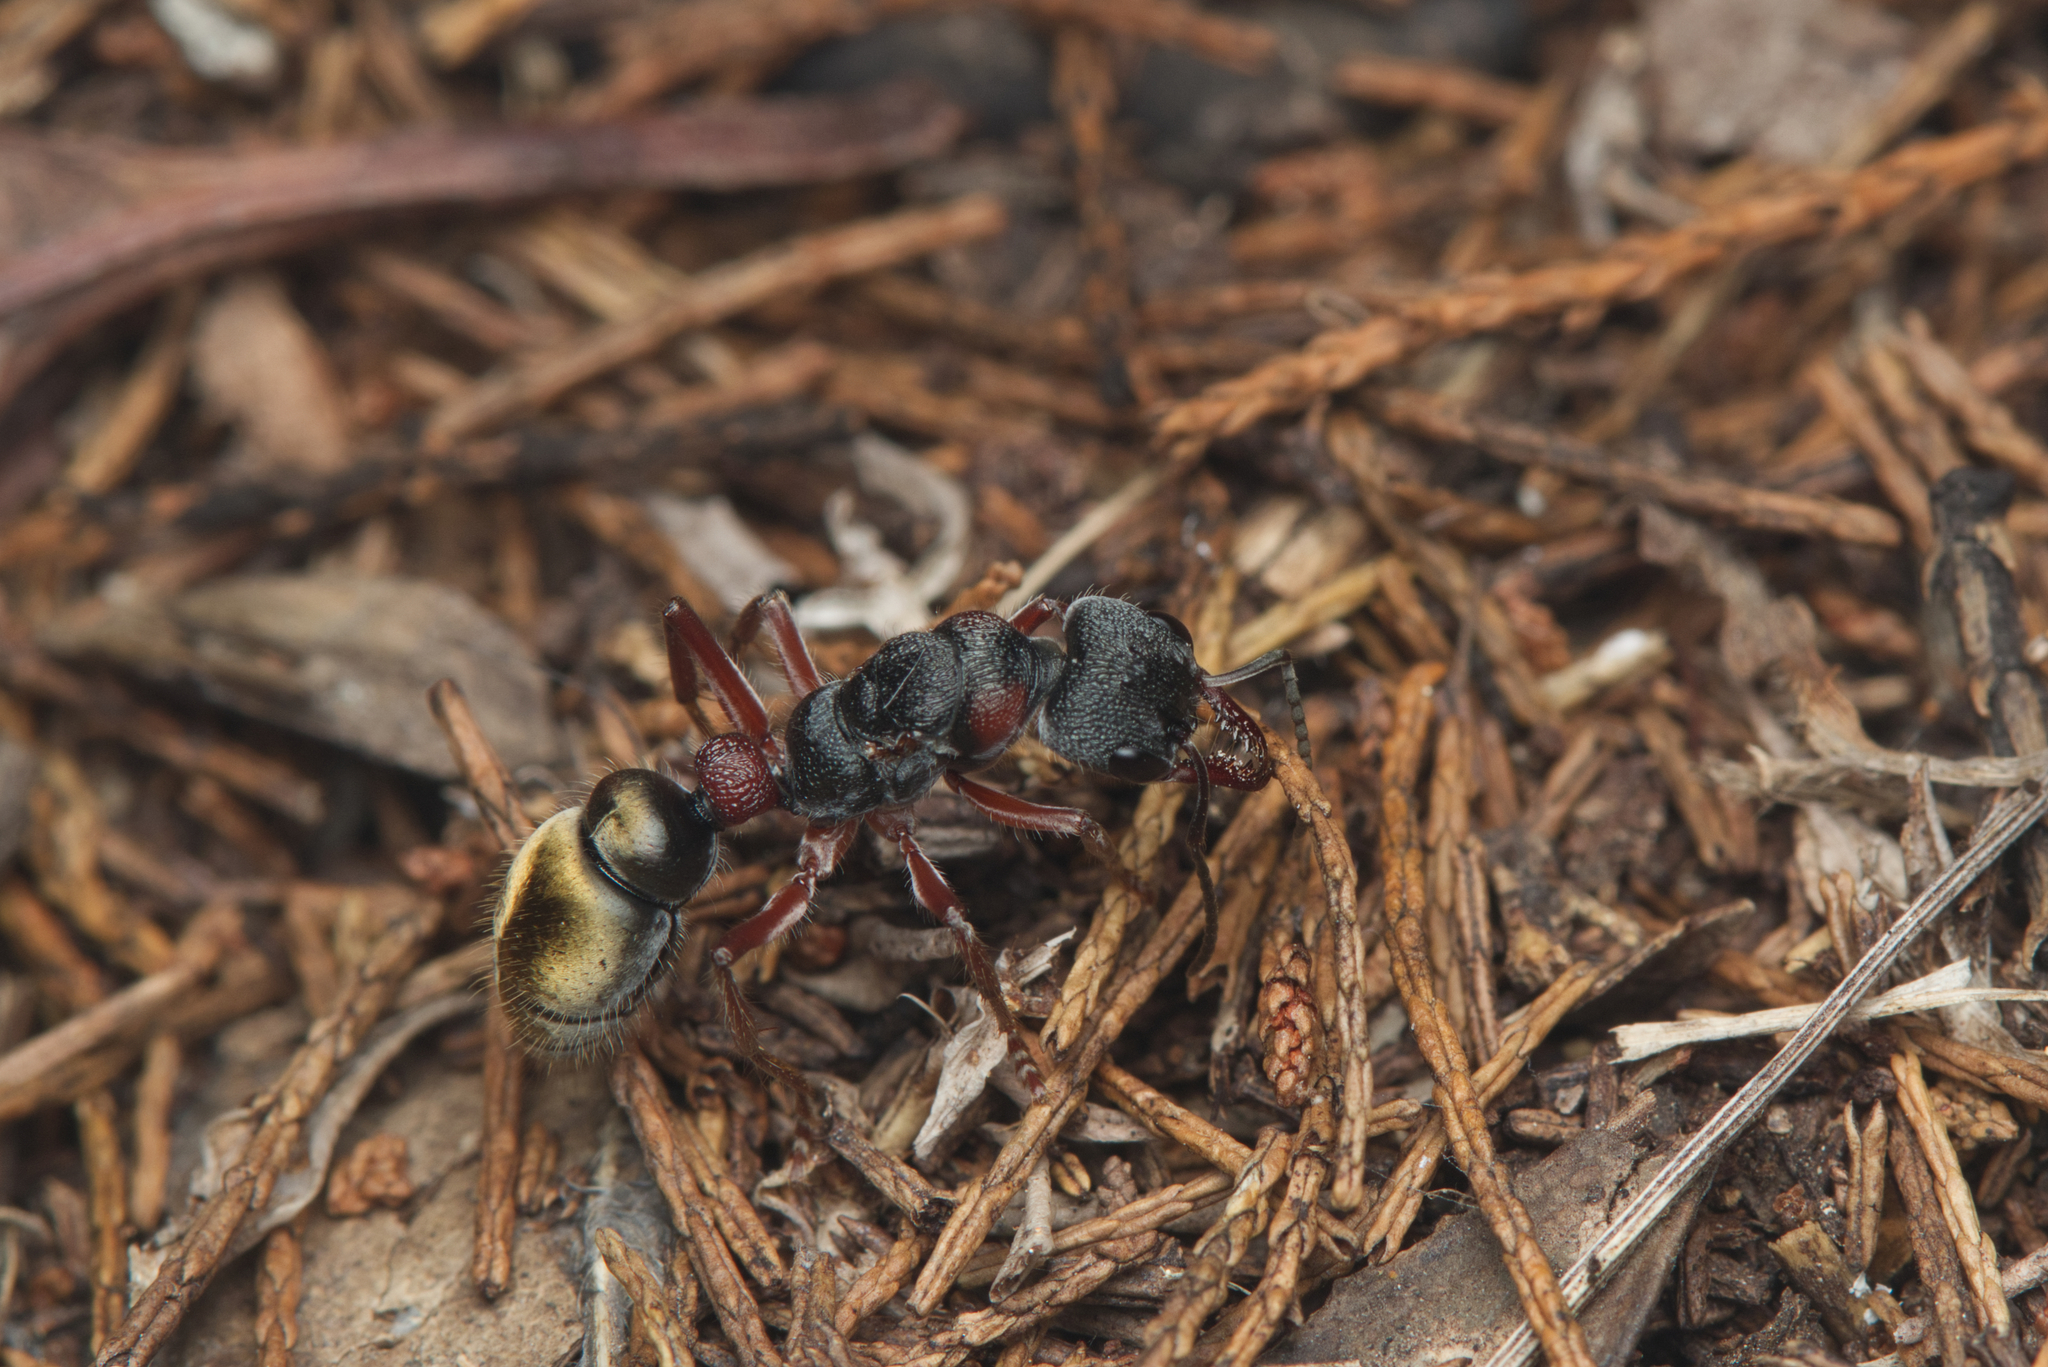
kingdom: Animalia
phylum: Arthropoda
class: Insecta
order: Hymenoptera
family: Formicidae
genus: Myrmecia
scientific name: Myrmecia chrysogaster
